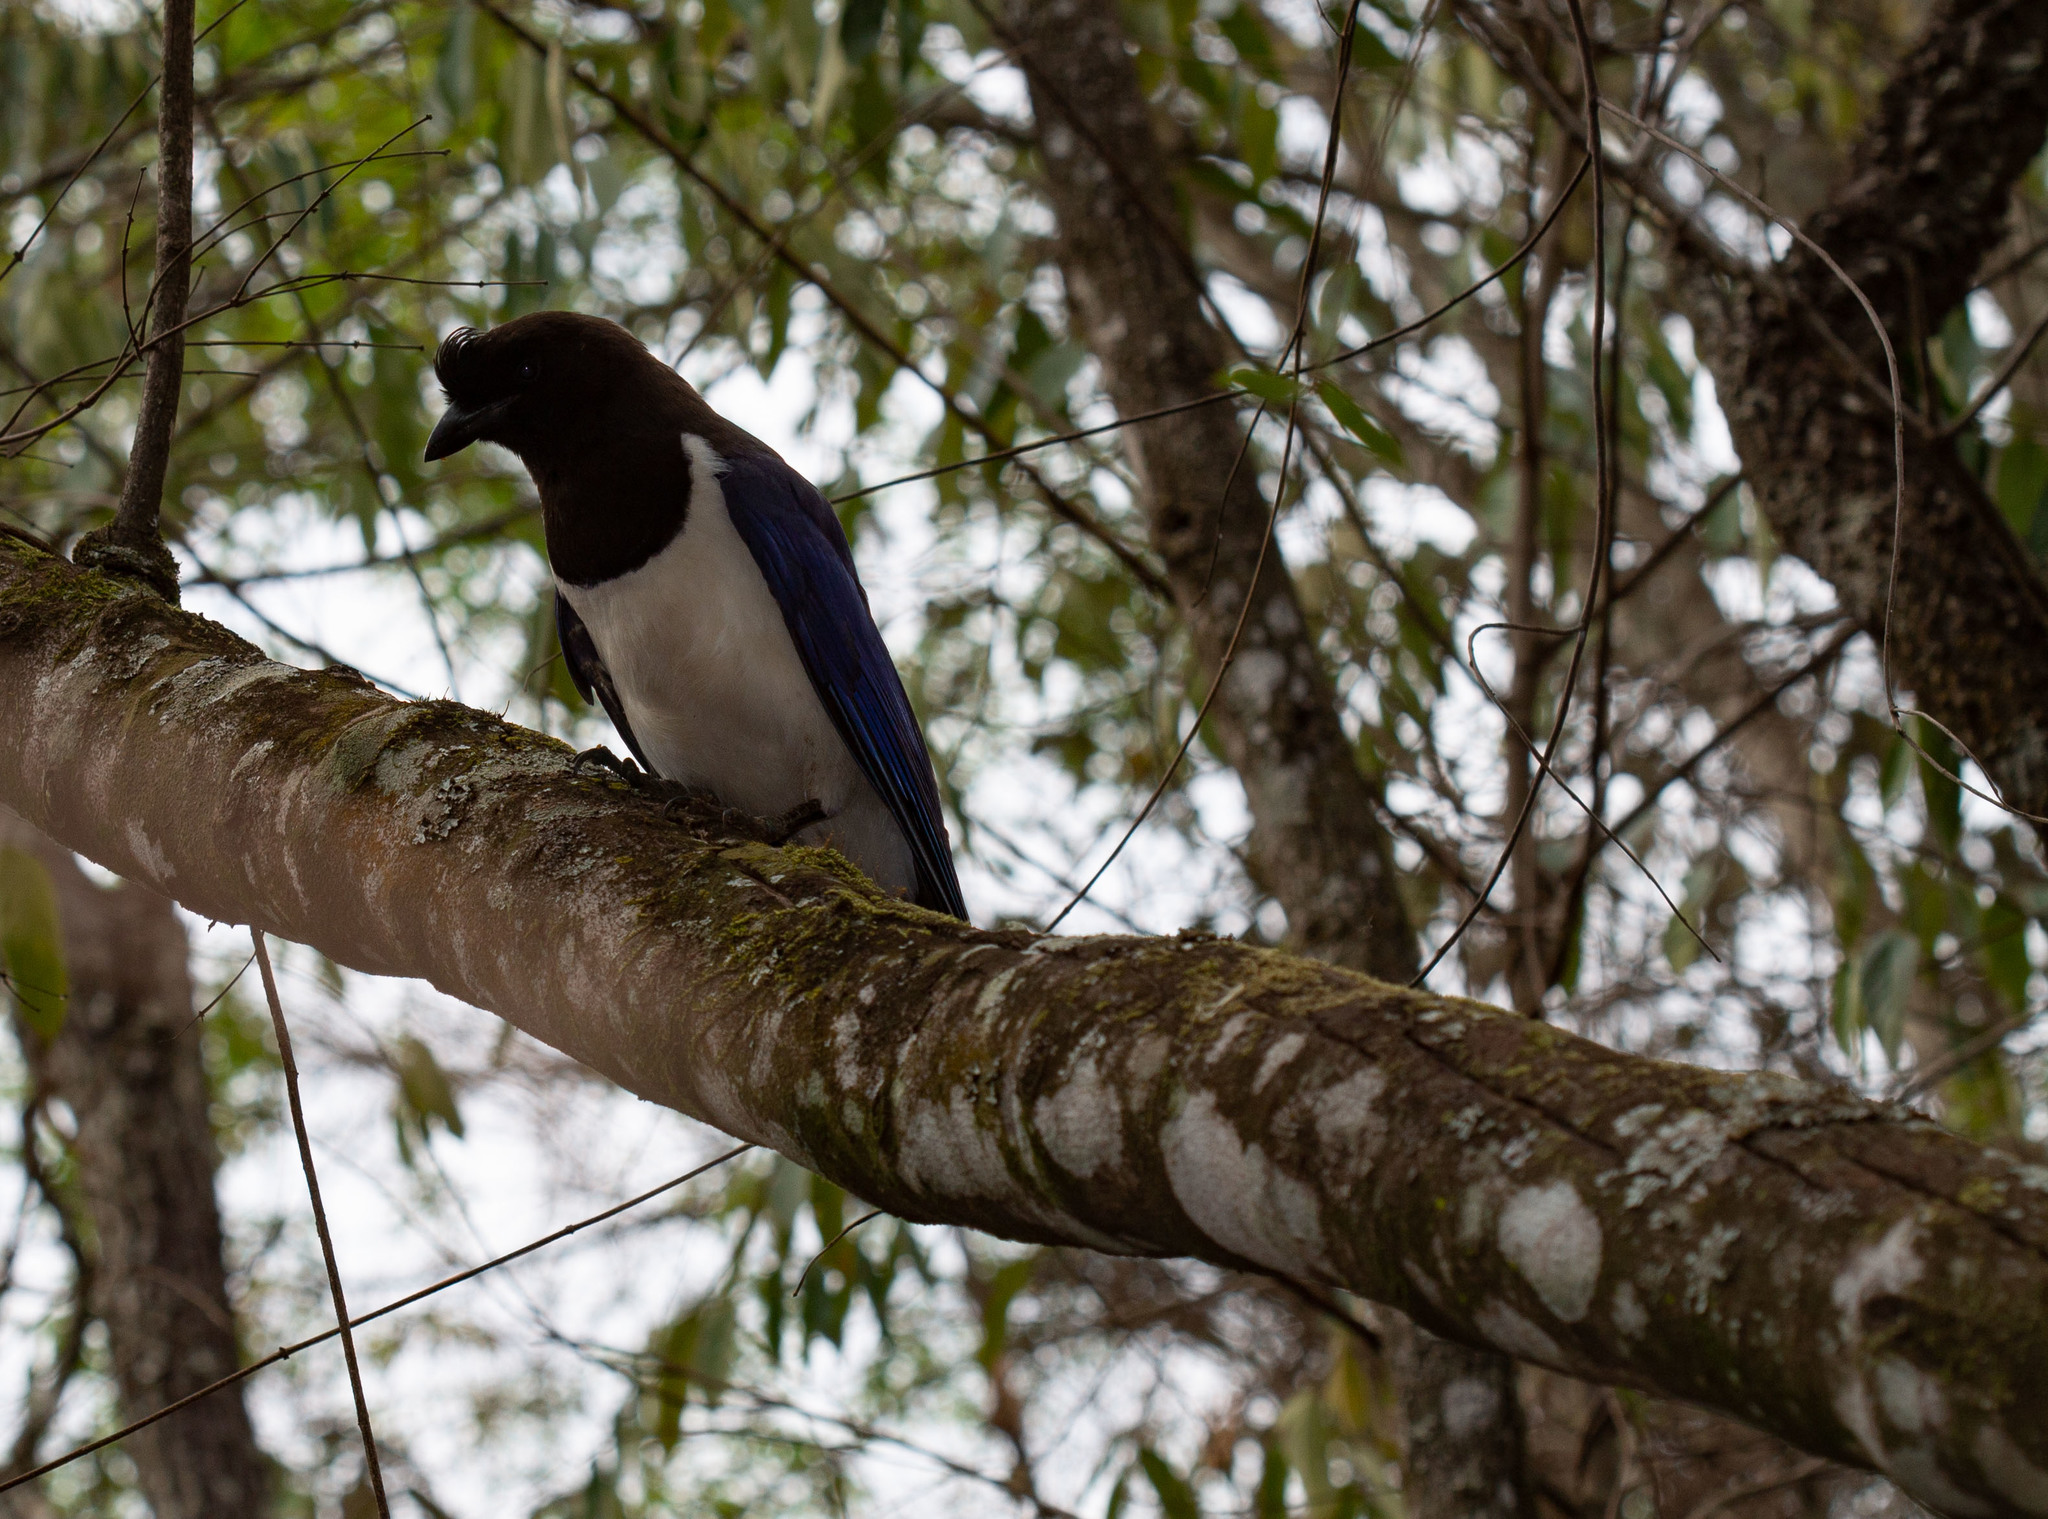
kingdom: Animalia
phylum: Chordata
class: Aves
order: Passeriformes
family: Corvidae
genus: Cyanocorax
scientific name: Cyanocorax cristatellus
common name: Curl-crested jay
